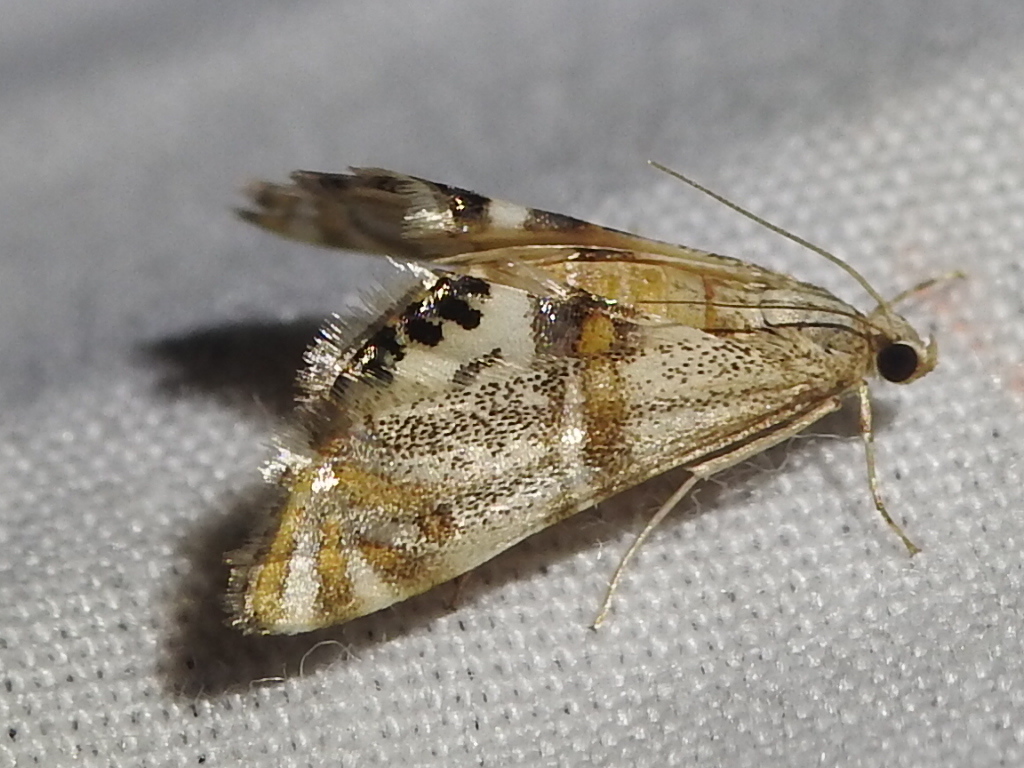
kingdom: Animalia
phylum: Arthropoda
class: Insecta
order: Lepidoptera
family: Crambidae
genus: Petrophila
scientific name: Petrophila bifascialis
